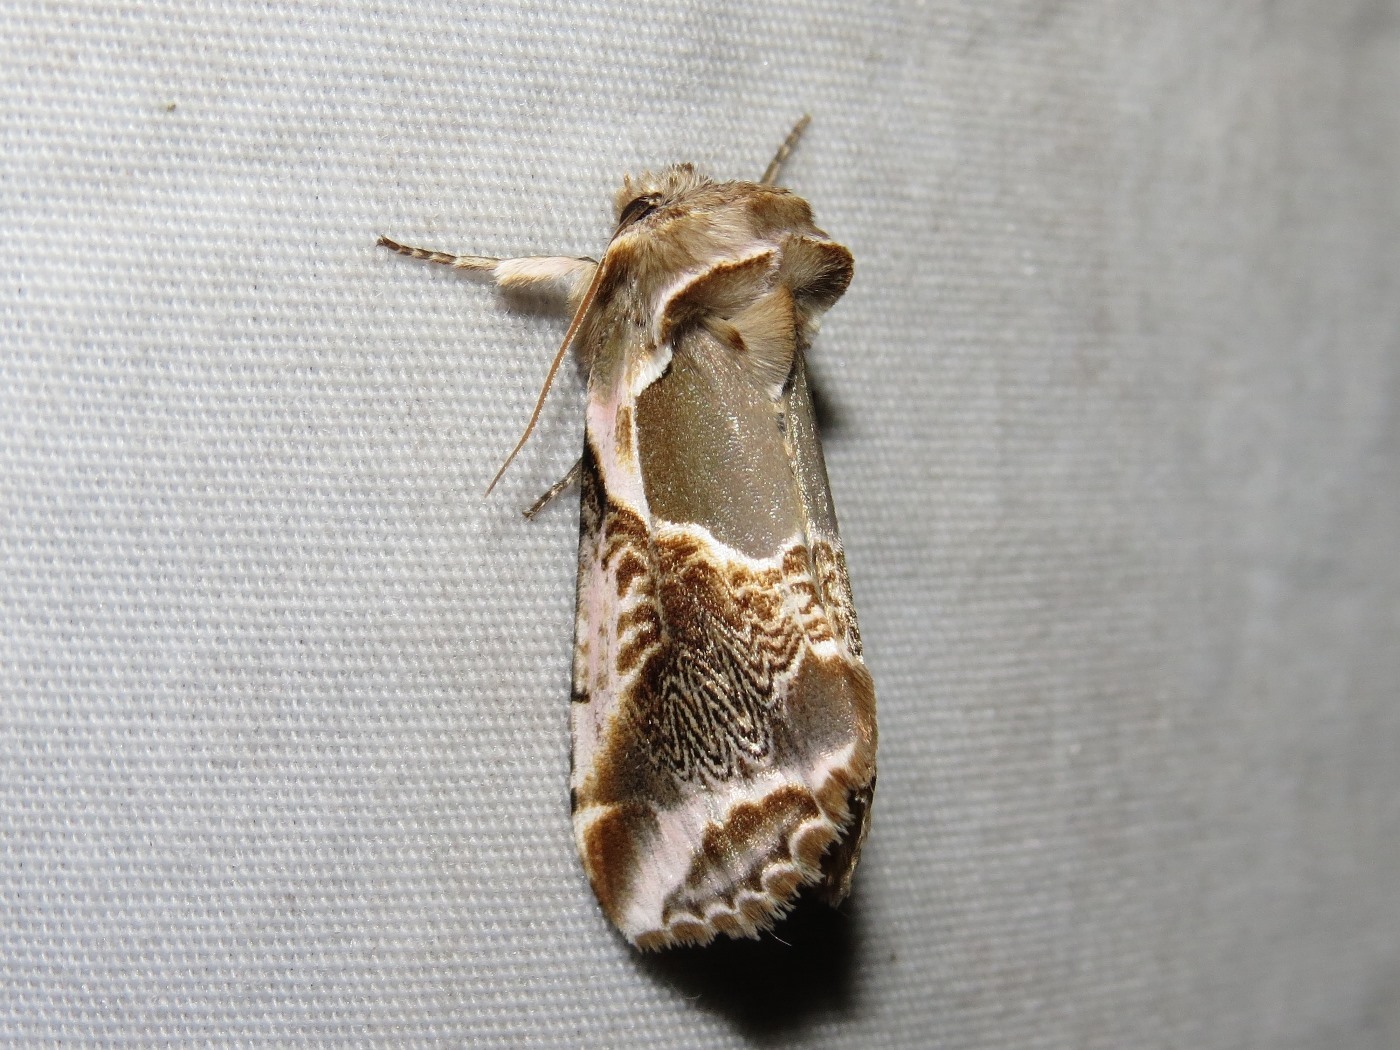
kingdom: Animalia
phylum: Arthropoda
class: Insecta
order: Lepidoptera
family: Drepanidae
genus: Habrosyne
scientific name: Habrosyne scripta
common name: Lettered habrosyne moth
